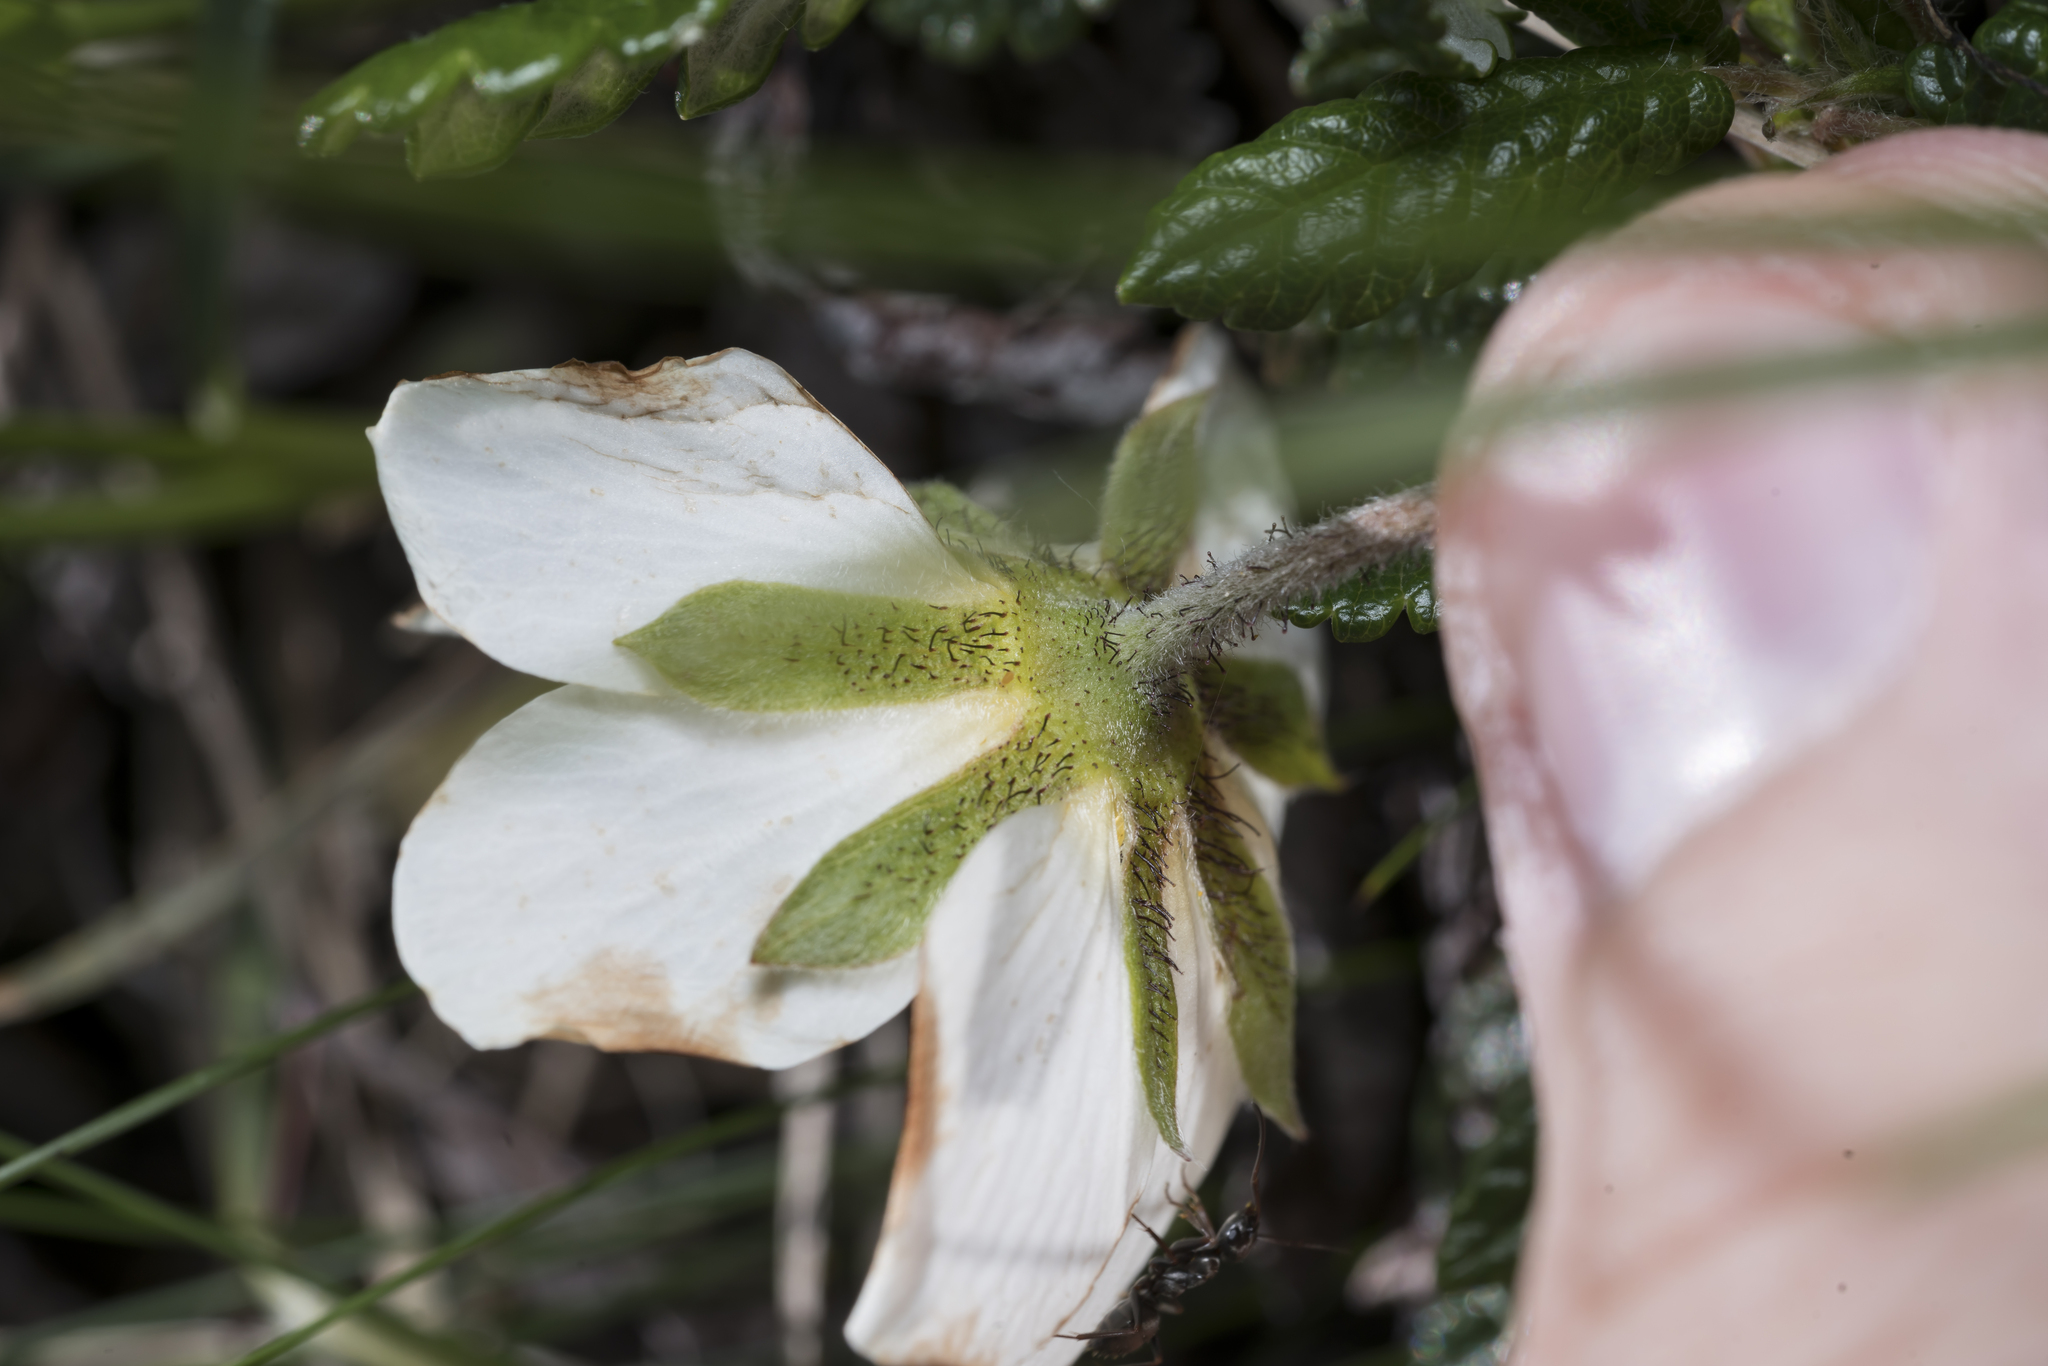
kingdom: Plantae
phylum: Tracheophyta
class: Magnoliopsida
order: Rosales
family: Rosaceae
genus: Dryas
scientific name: Dryas octopetala
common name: Eight-petal mountain-avens
